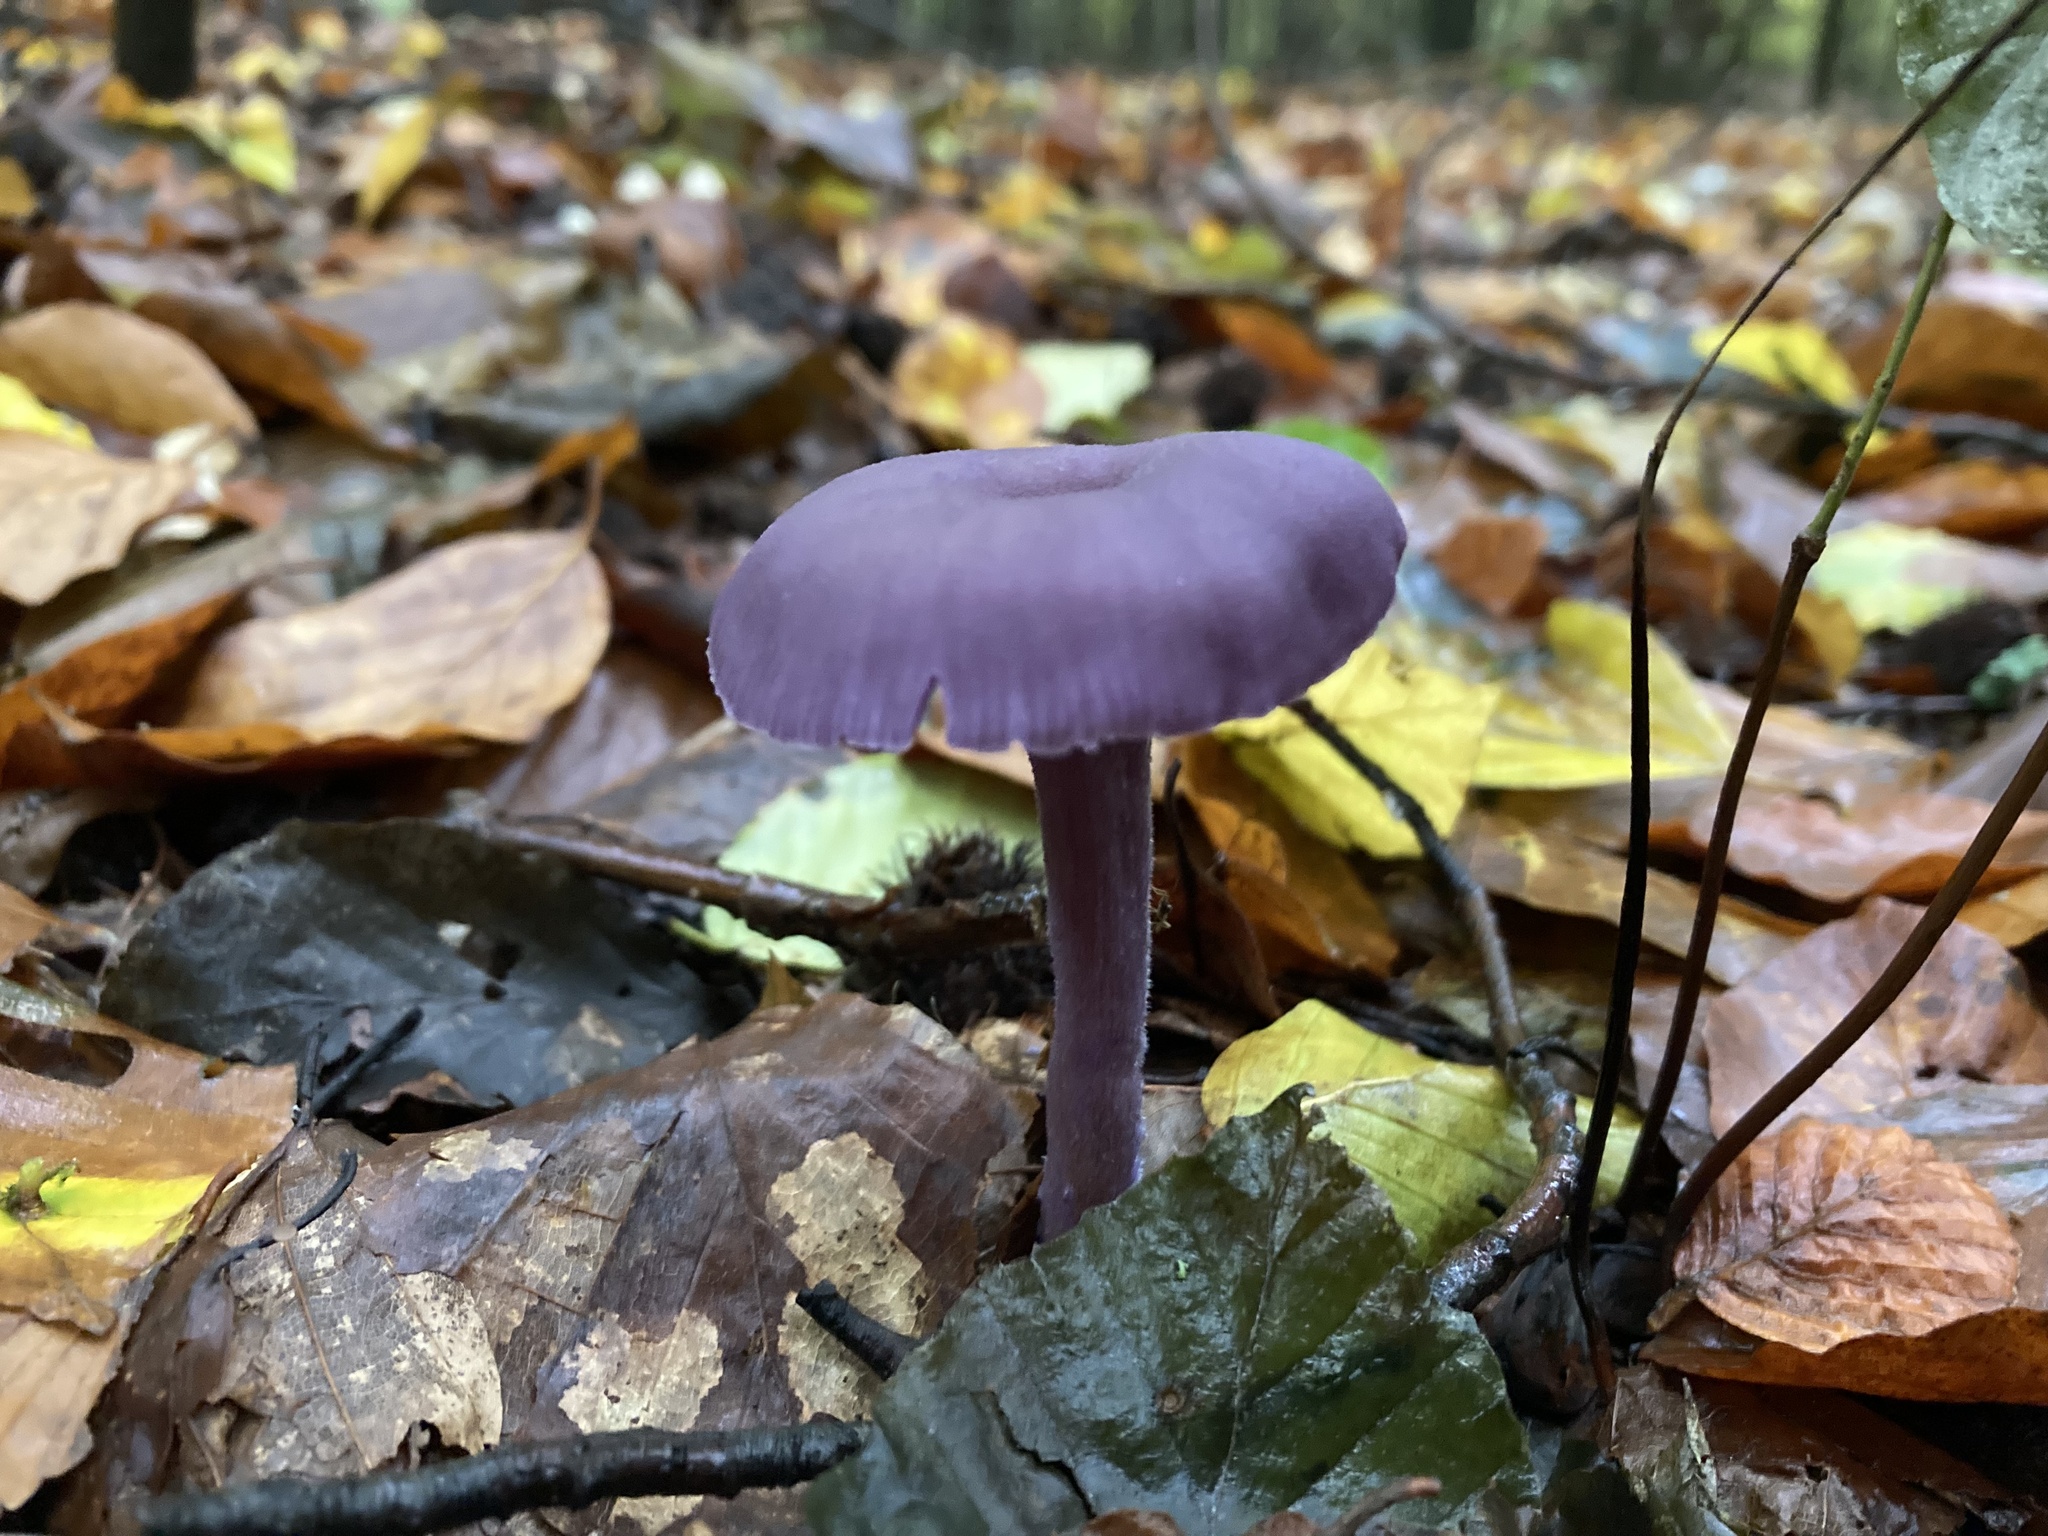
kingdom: Fungi
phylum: Basidiomycota
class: Agaricomycetes
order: Agaricales
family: Hydnangiaceae
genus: Laccaria
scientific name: Laccaria amethystina
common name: Amethyst deceiver
